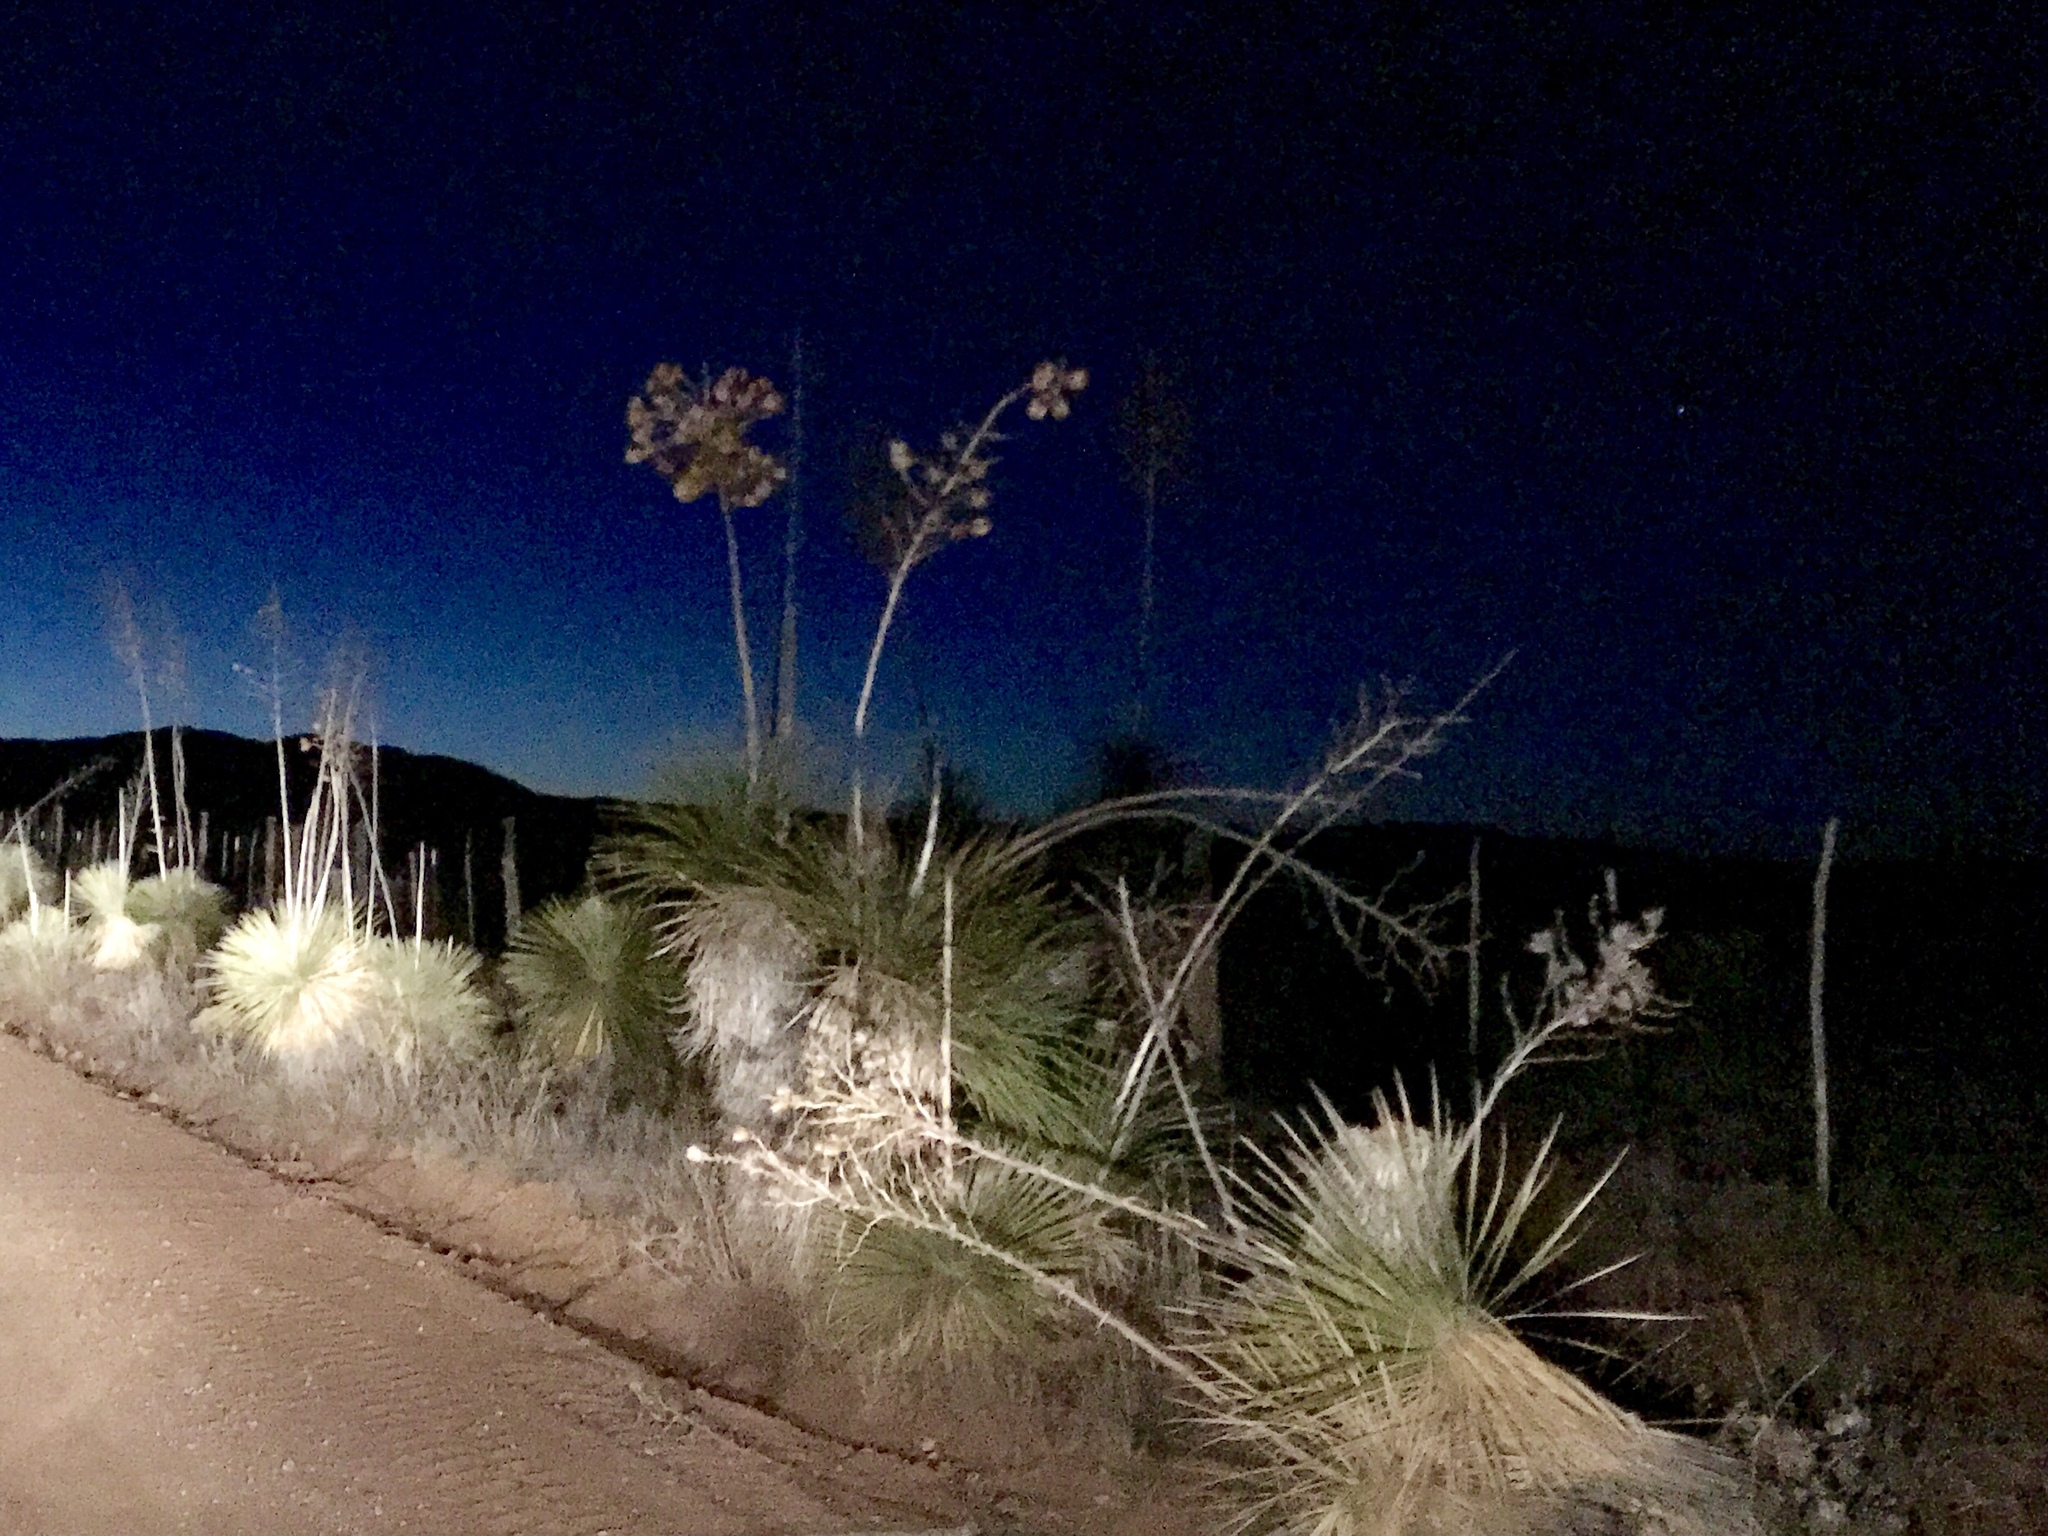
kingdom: Plantae
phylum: Tracheophyta
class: Liliopsida
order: Asparagales
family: Asparagaceae
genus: Yucca
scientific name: Yucca elata
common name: Palmella
